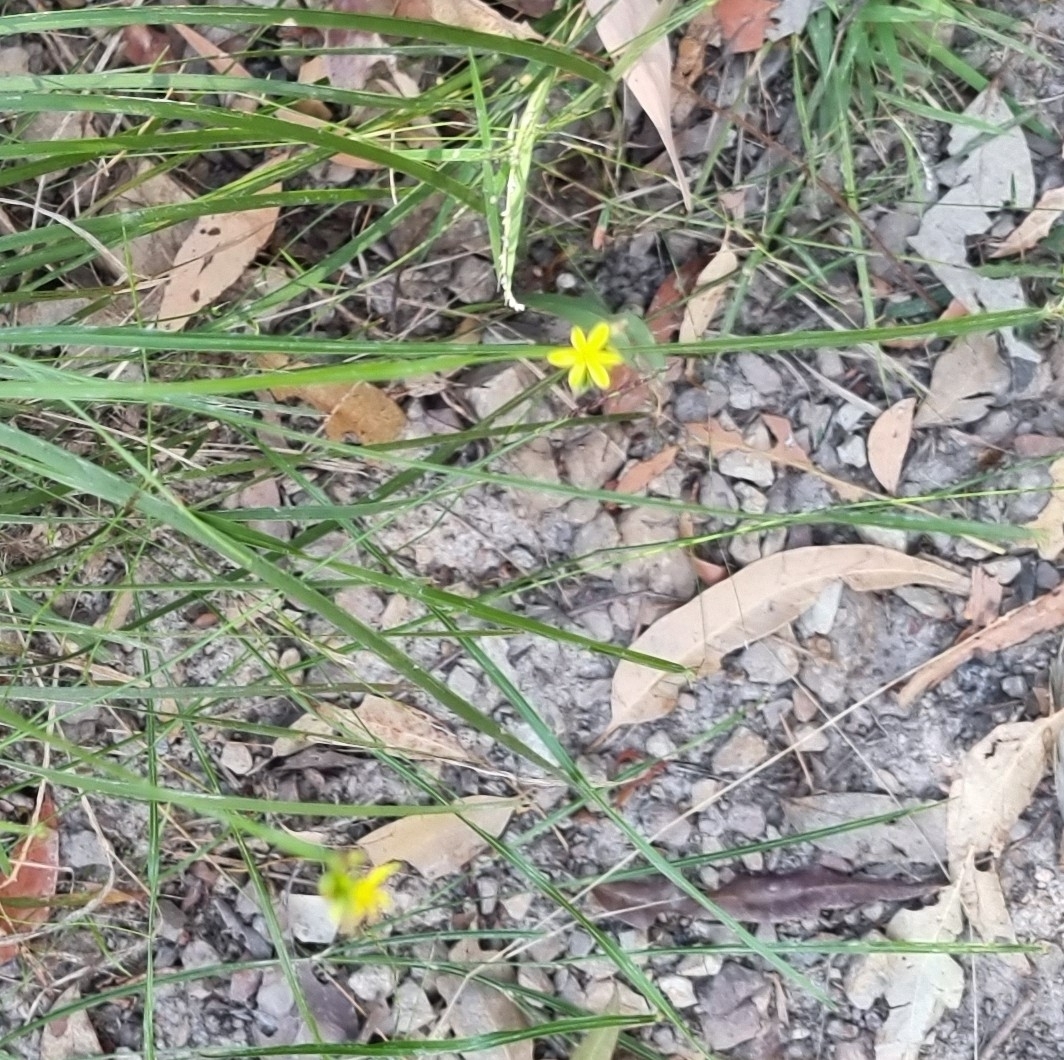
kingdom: Plantae
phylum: Tracheophyta
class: Liliopsida
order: Asparagales
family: Asphodelaceae
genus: Tricoryne
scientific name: Tricoryne anceps
